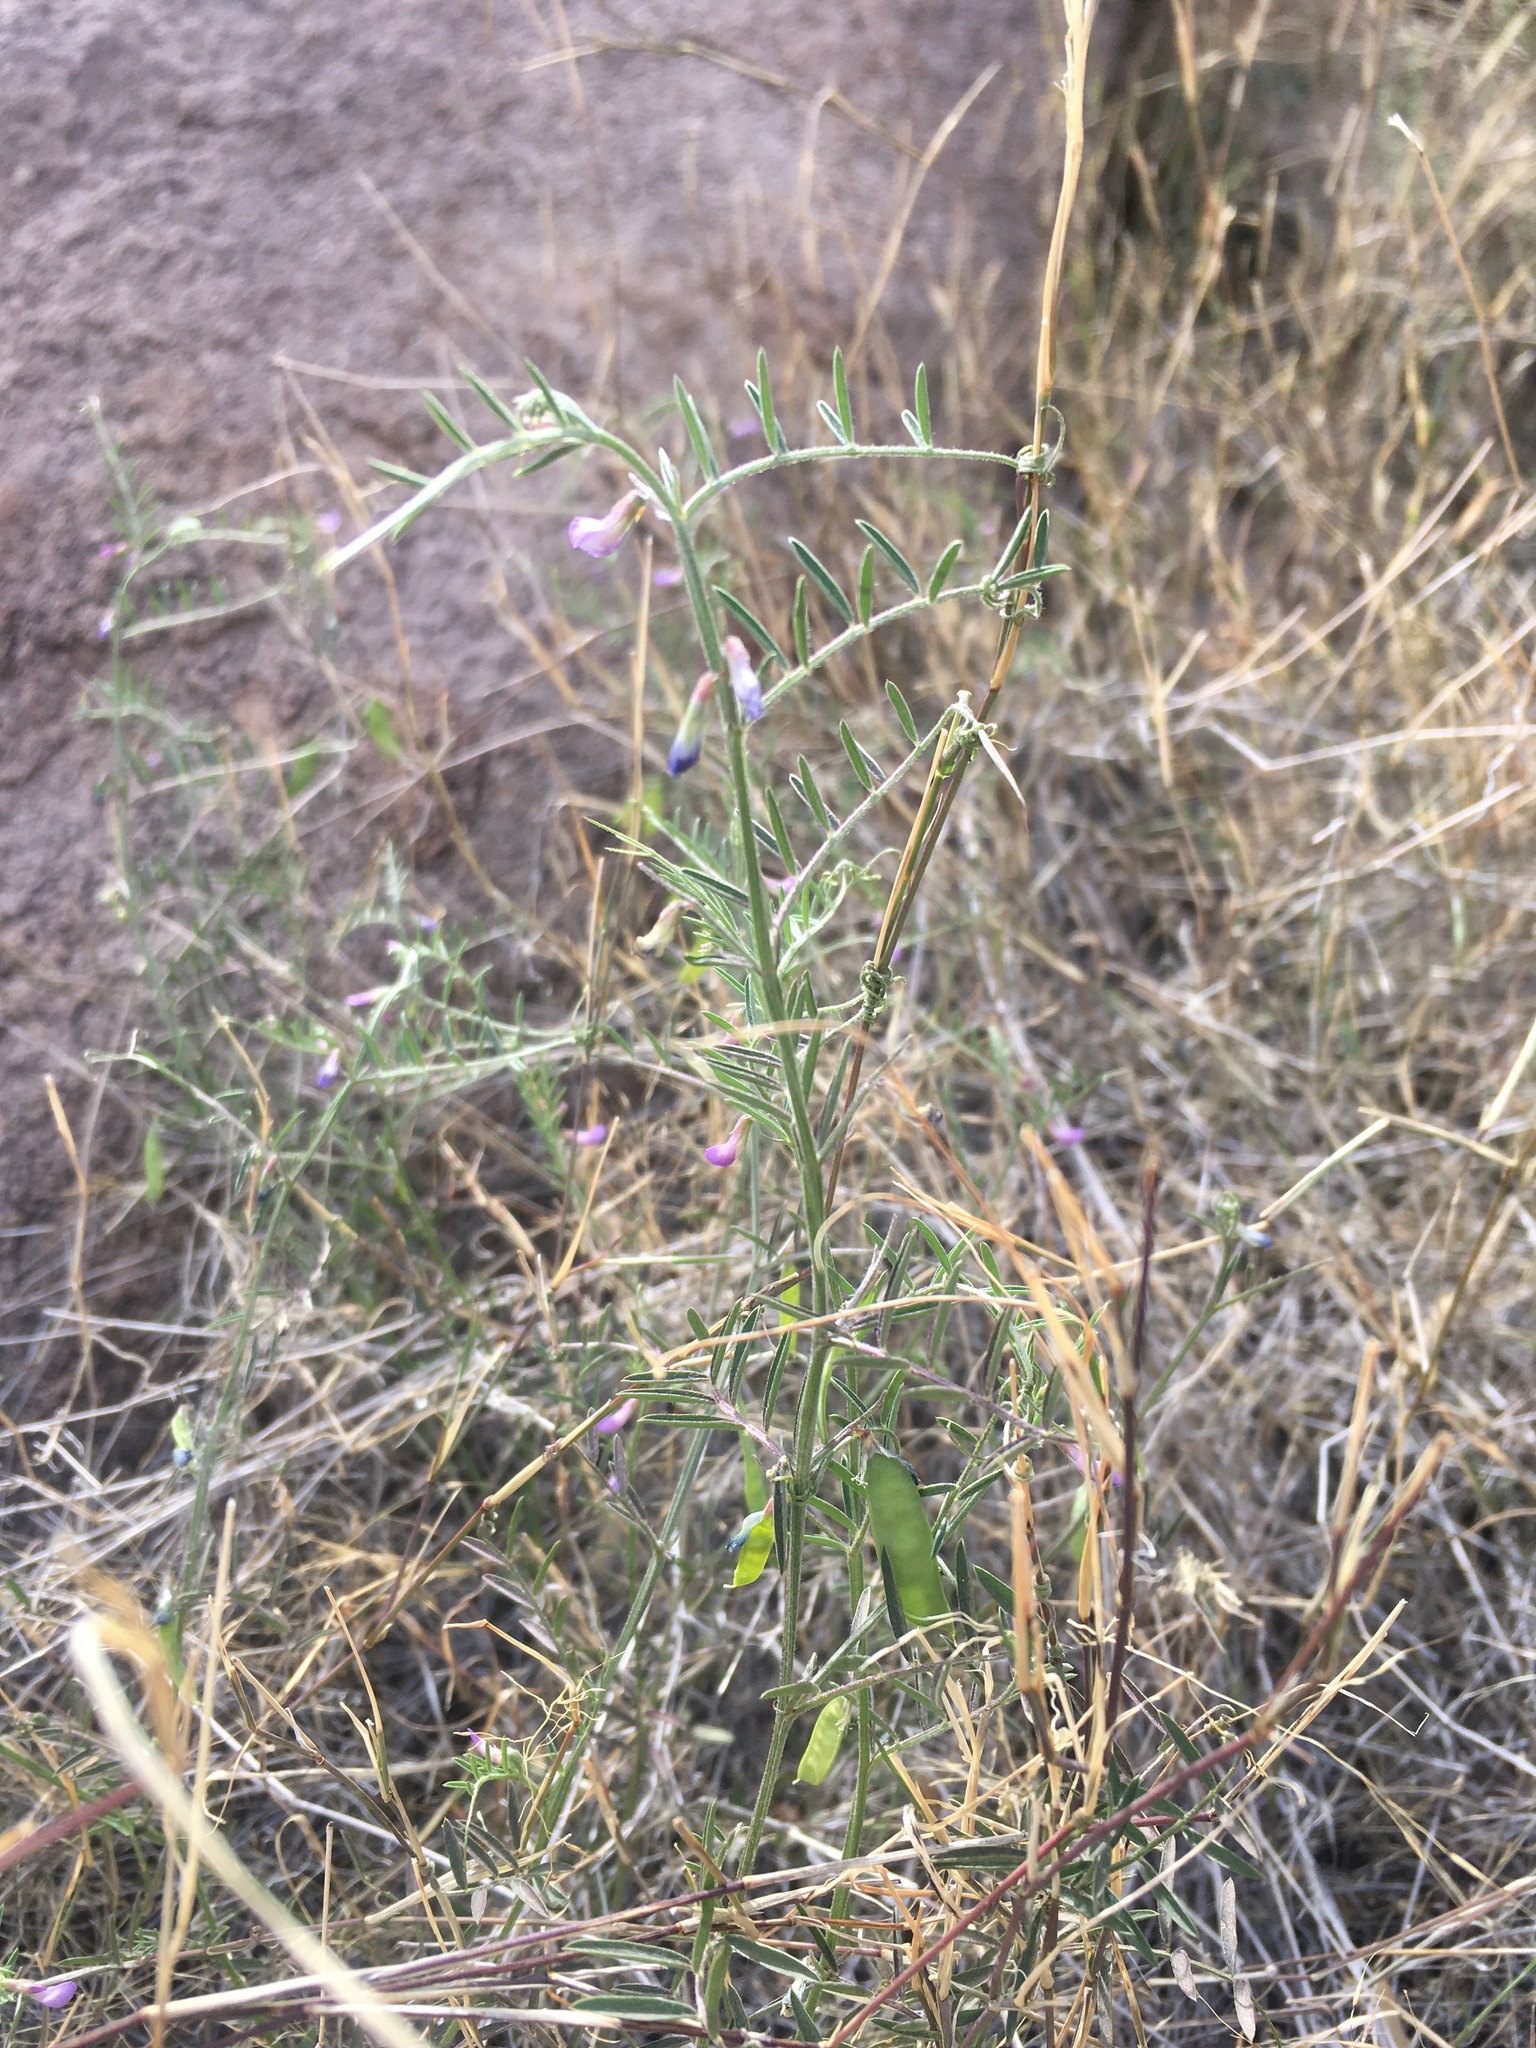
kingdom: Plantae
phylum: Tracheophyta
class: Magnoliopsida
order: Fabales
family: Fabaceae
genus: Vicia
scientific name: Vicia ludoviciana
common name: Louisiana vetch
